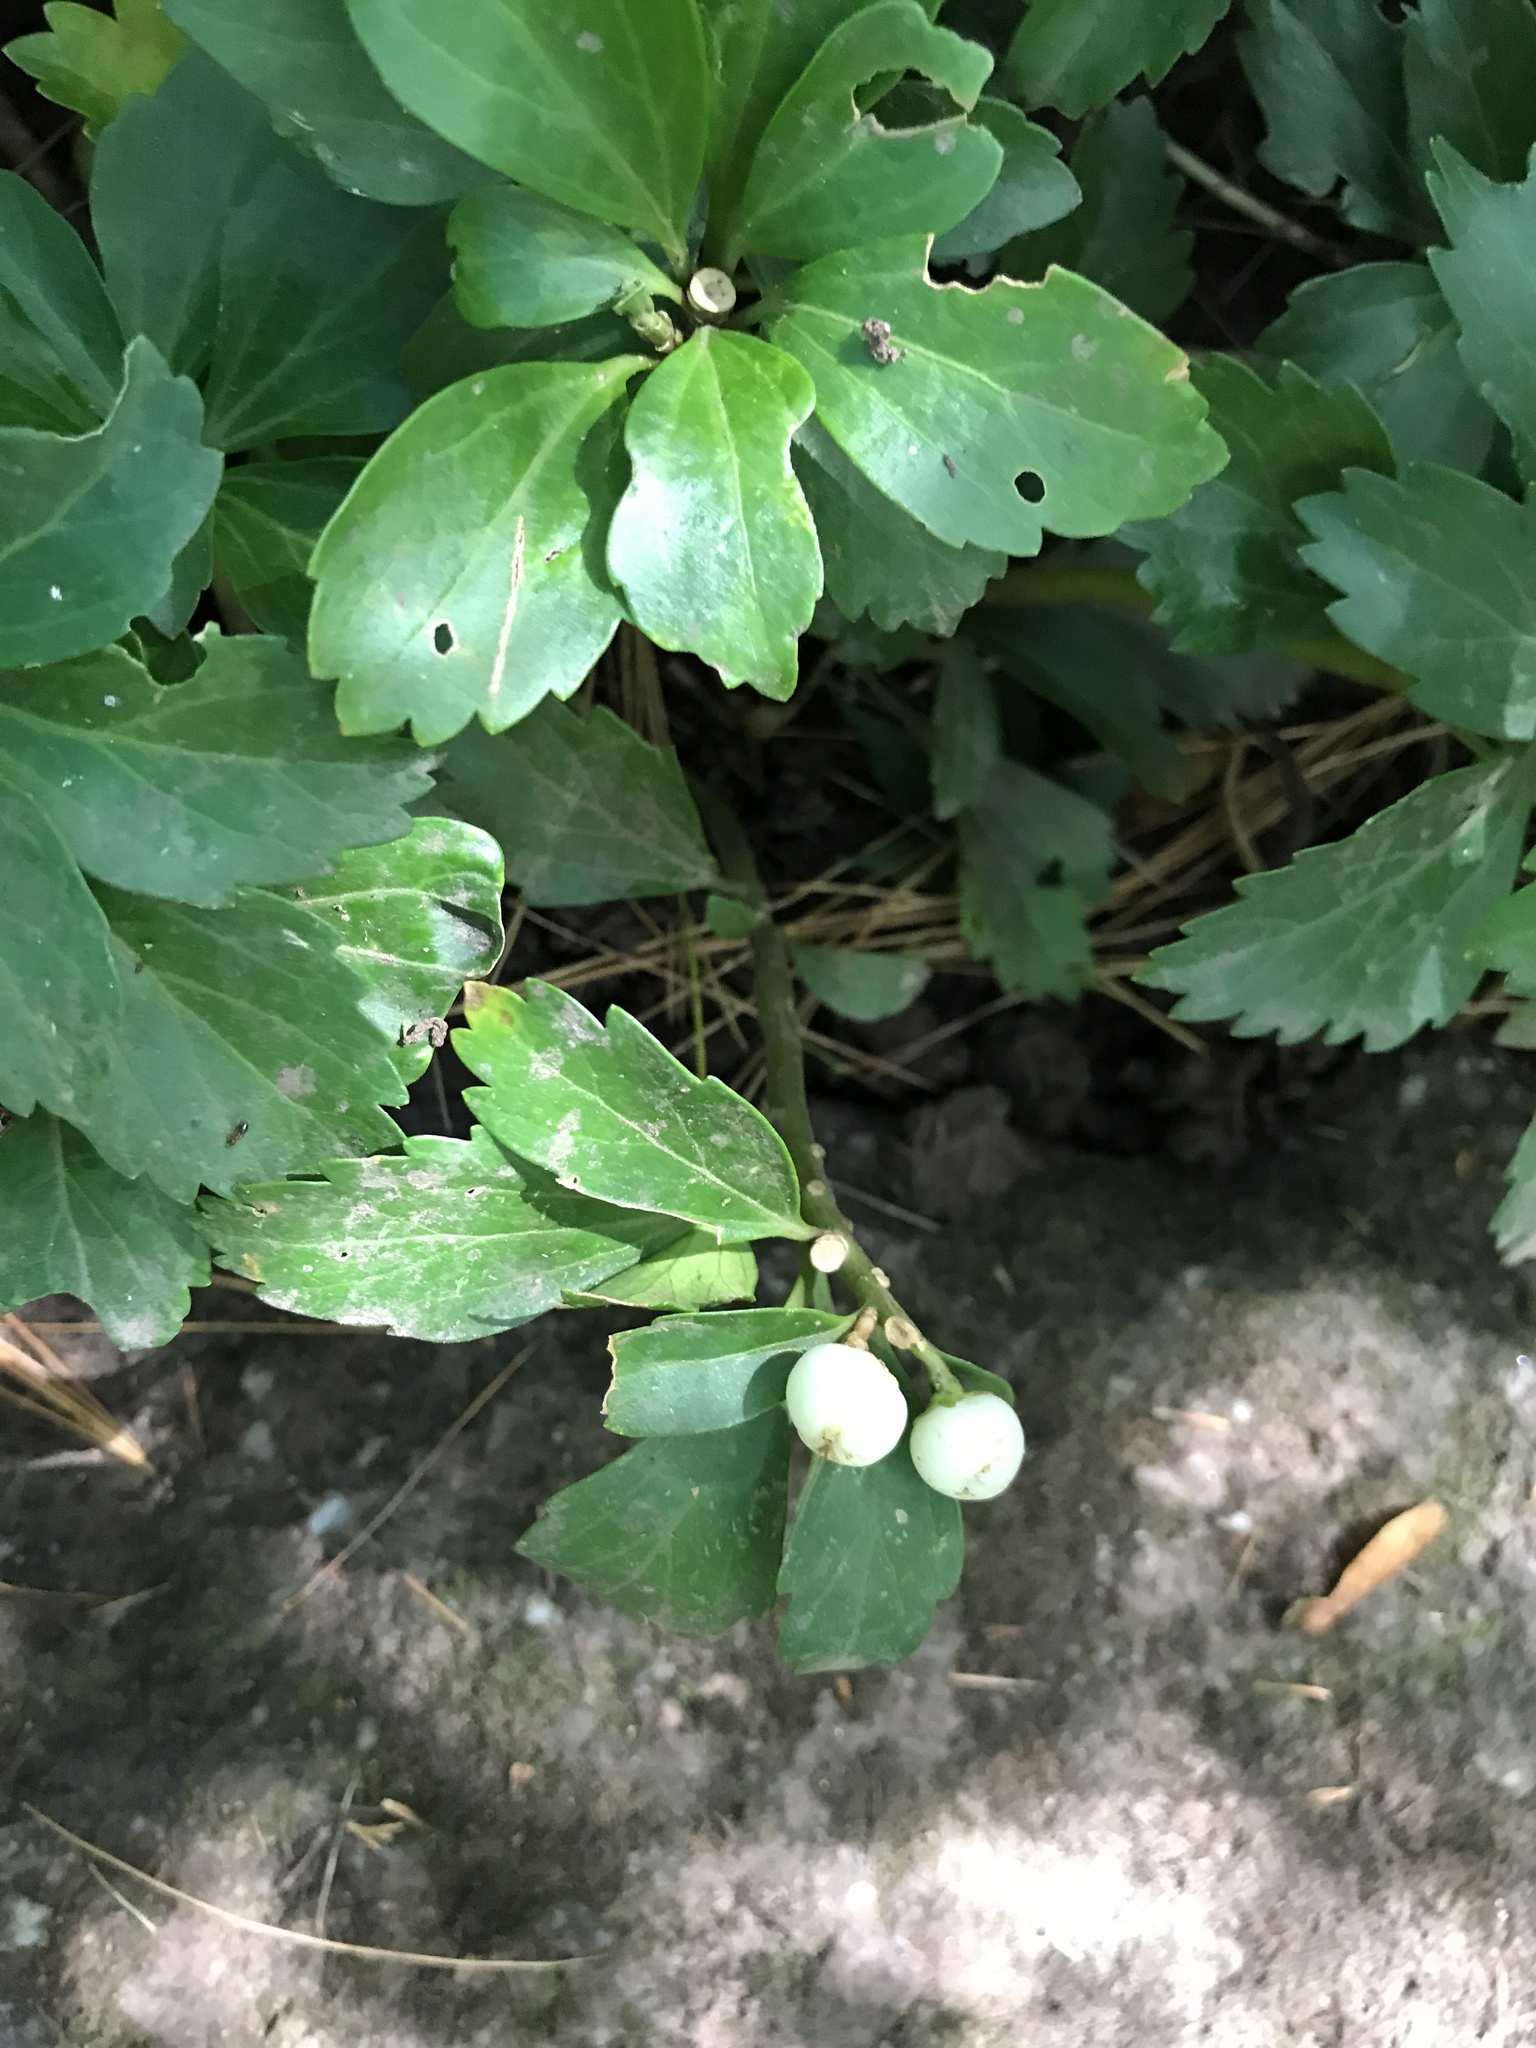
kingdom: Plantae
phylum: Tracheophyta
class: Magnoliopsida
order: Buxales
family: Buxaceae
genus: Pachysandra
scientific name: Pachysandra terminalis
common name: Japanese pachysandra
